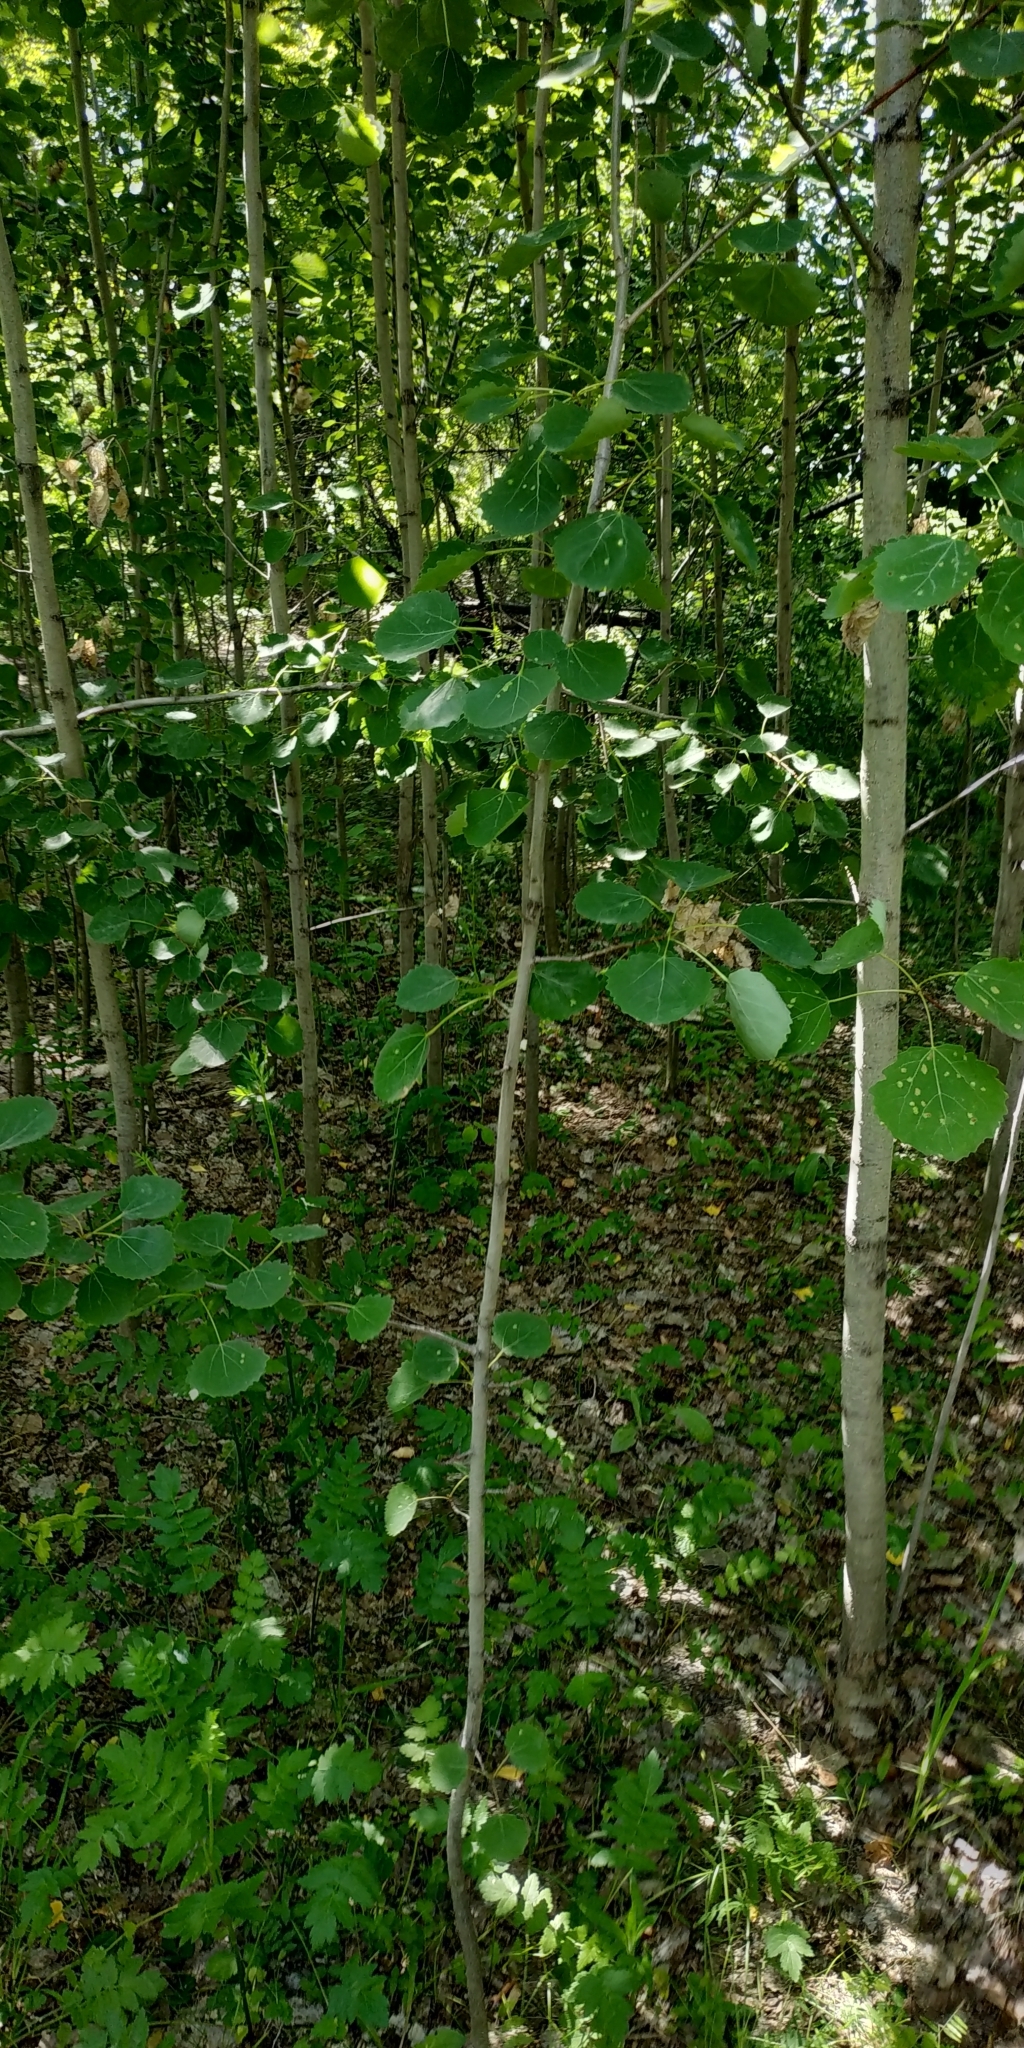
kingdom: Plantae
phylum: Tracheophyta
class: Magnoliopsida
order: Malpighiales
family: Salicaceae
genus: Populus
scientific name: Populus tremula
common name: European aspen
